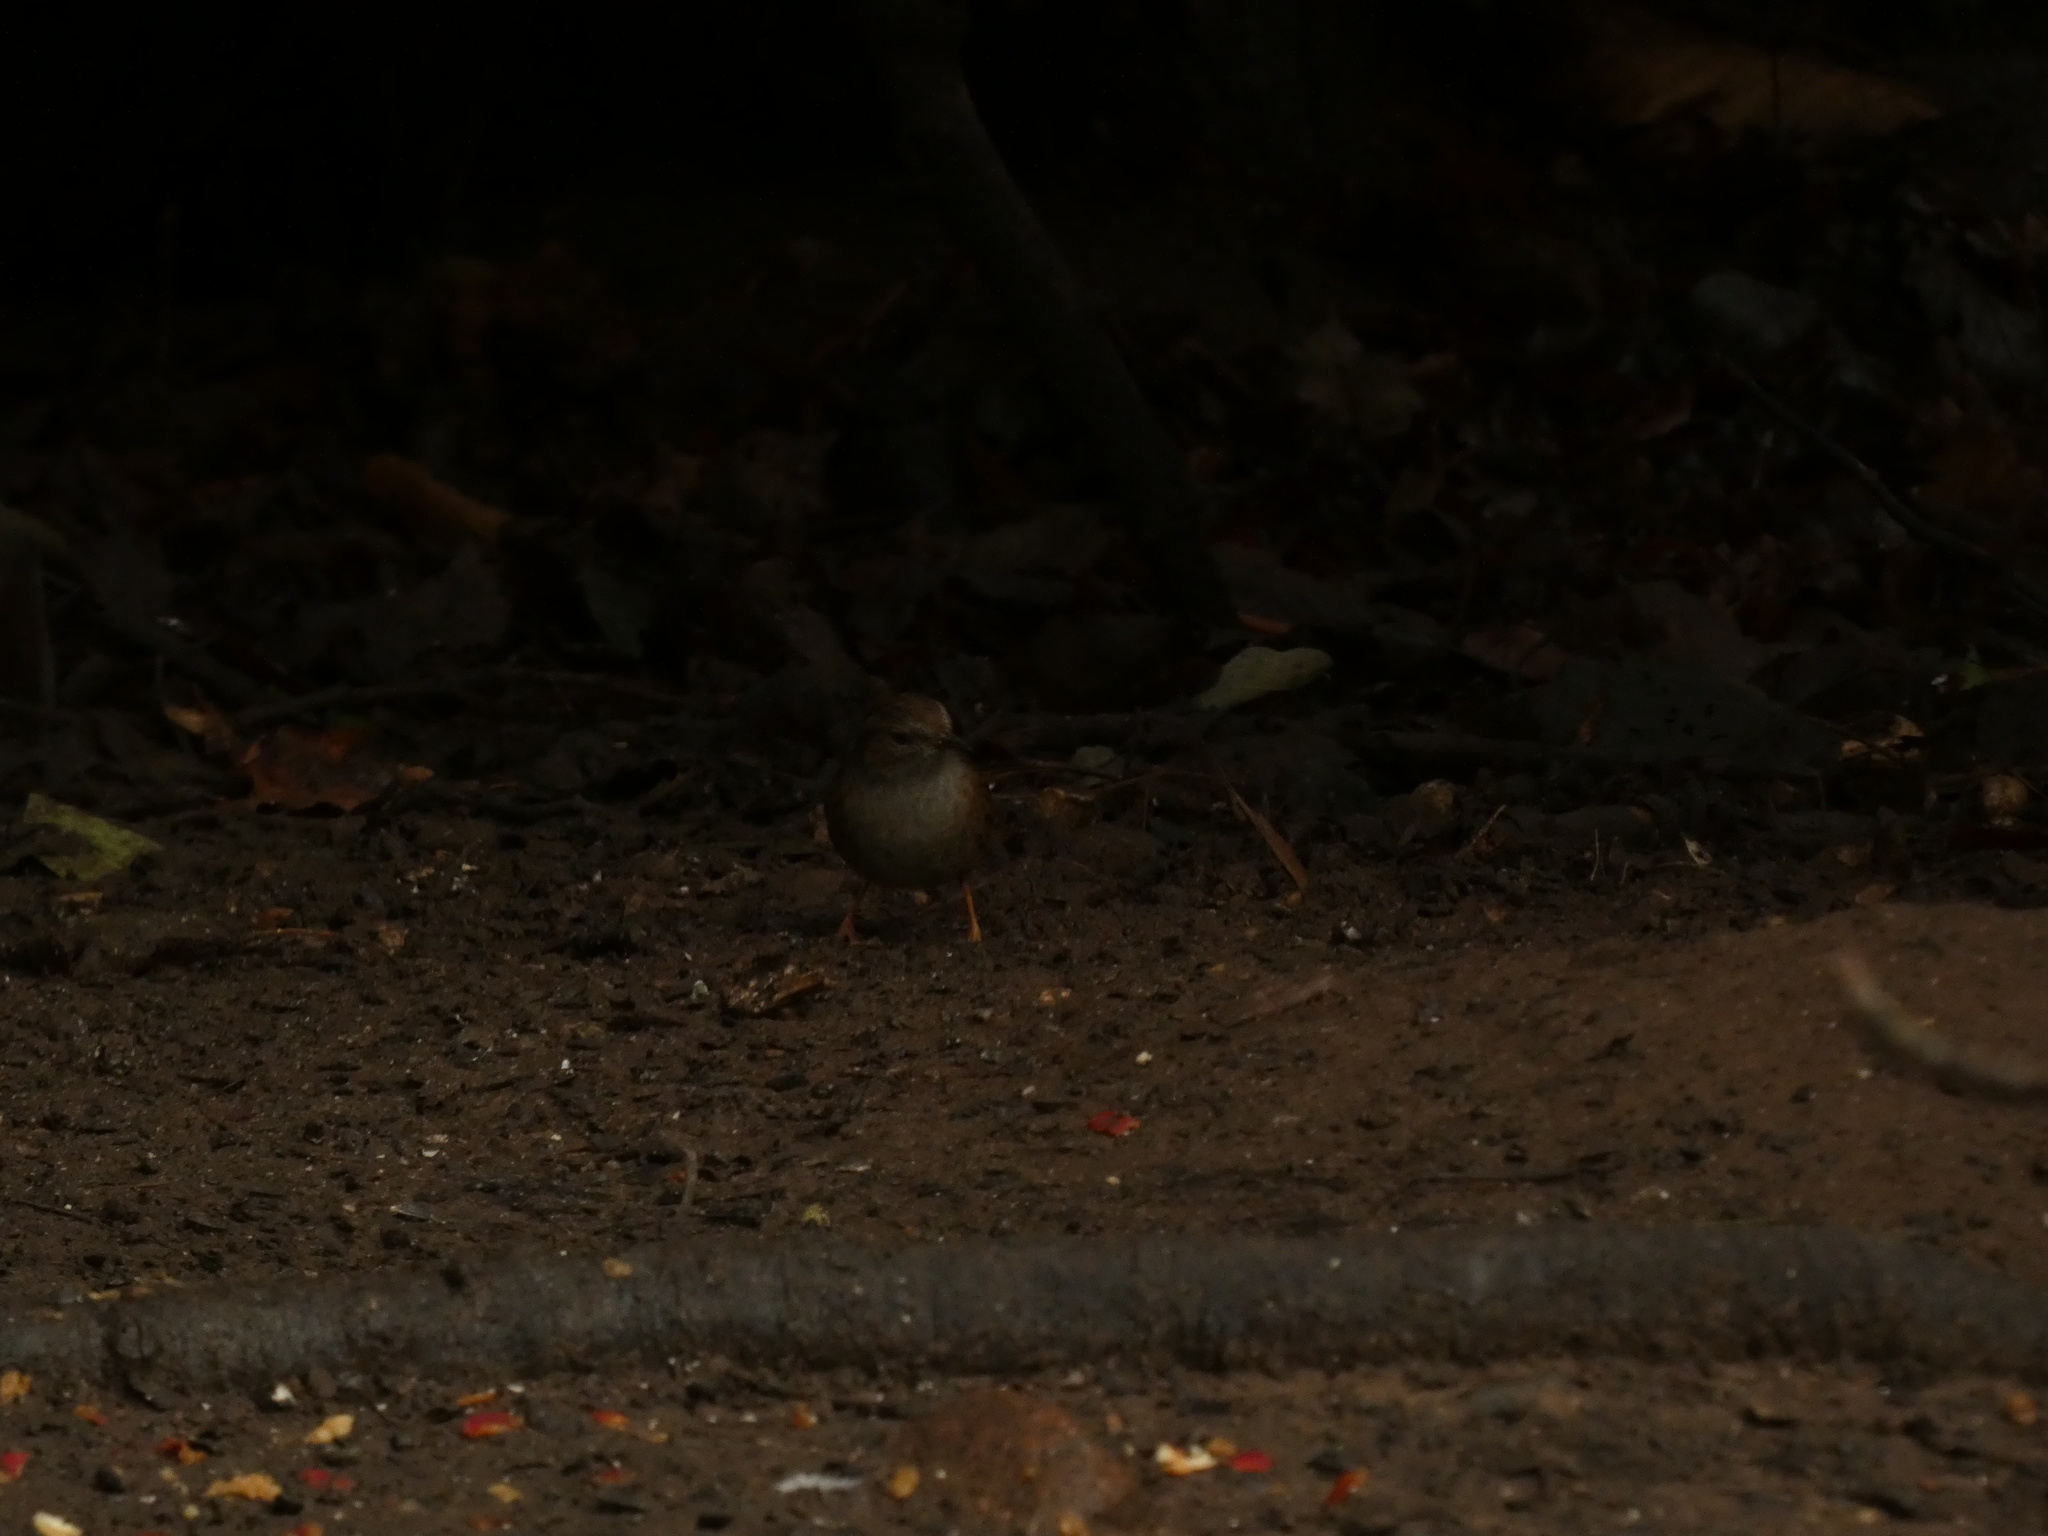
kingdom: Animalia
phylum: Chordata
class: Aves
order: Passeriformes
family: Prunellidae
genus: Prunella
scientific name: Prunella modularis
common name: Dunnock
